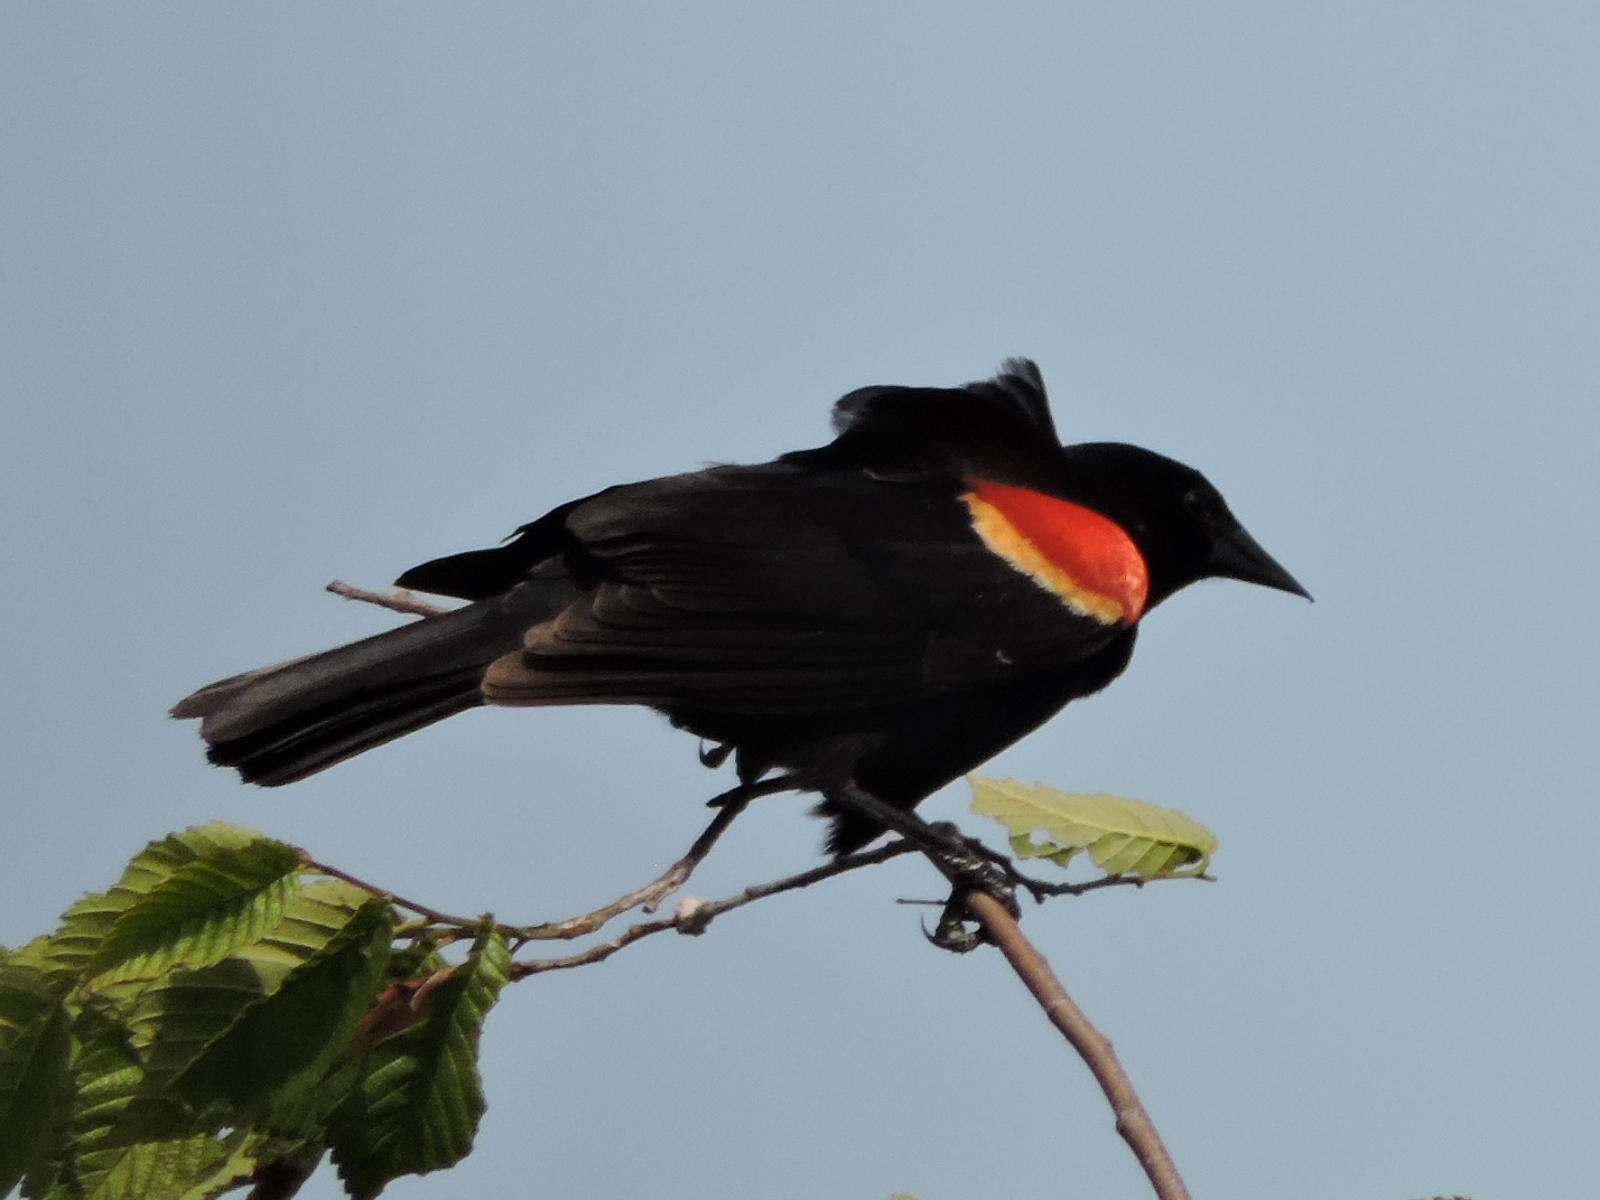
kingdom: Animalia
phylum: Chordata
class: Aves
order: Passeriformes
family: Icteridae
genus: Agelaius
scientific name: Agelaius phoeniceus
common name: Red-winged blackbird
